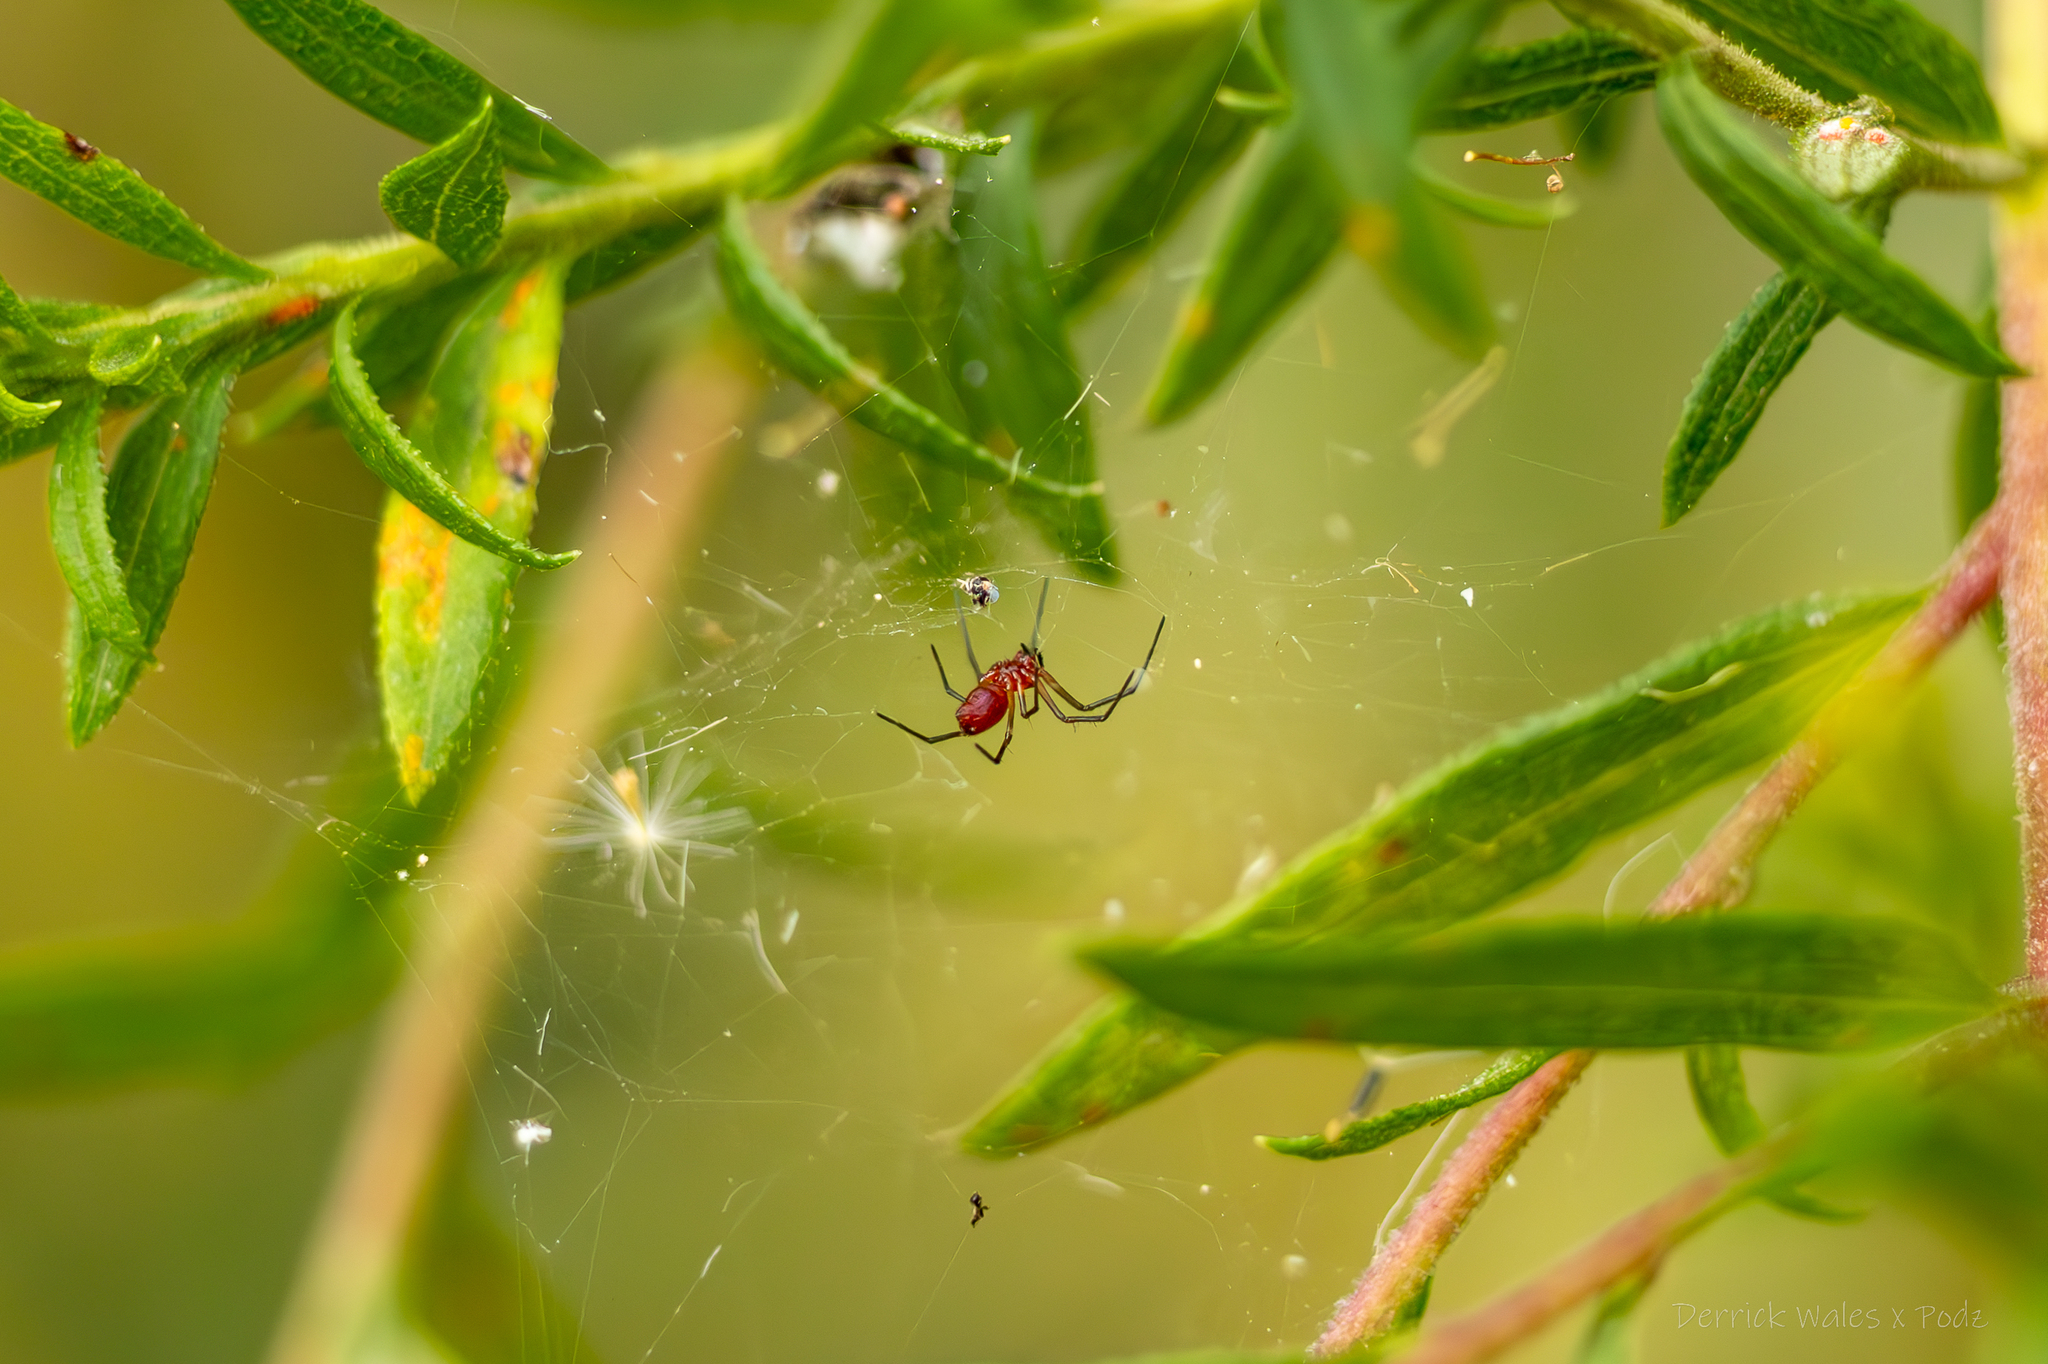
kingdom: Animalia
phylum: Arthropoda
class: Arachnida
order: Araneae
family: Linyphiidae
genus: Florinda
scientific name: Florinda coccinea
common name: Black-tailed red sheetweaver
